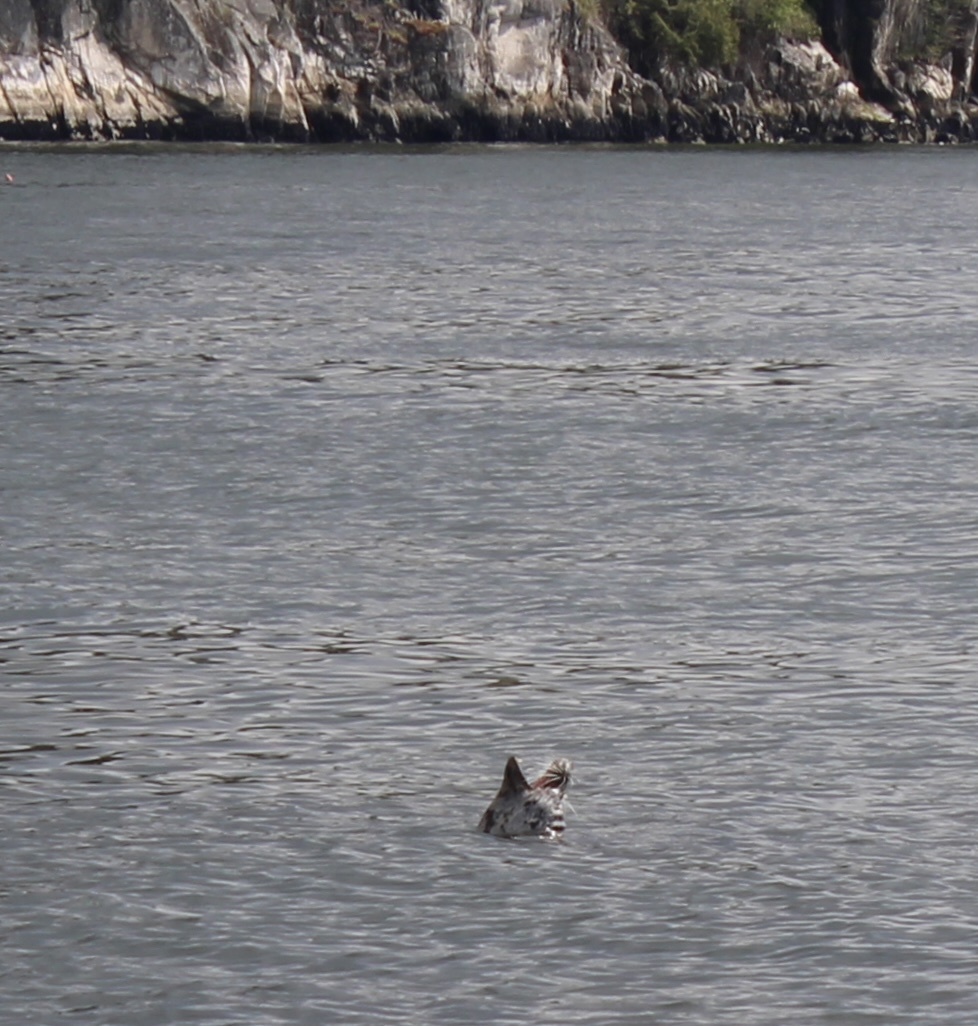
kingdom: Animalia
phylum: Chordata
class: Mammalia
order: Carnivora
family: Phocidae
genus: Phoca
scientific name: Phoca vitulina
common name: Harbor seal
